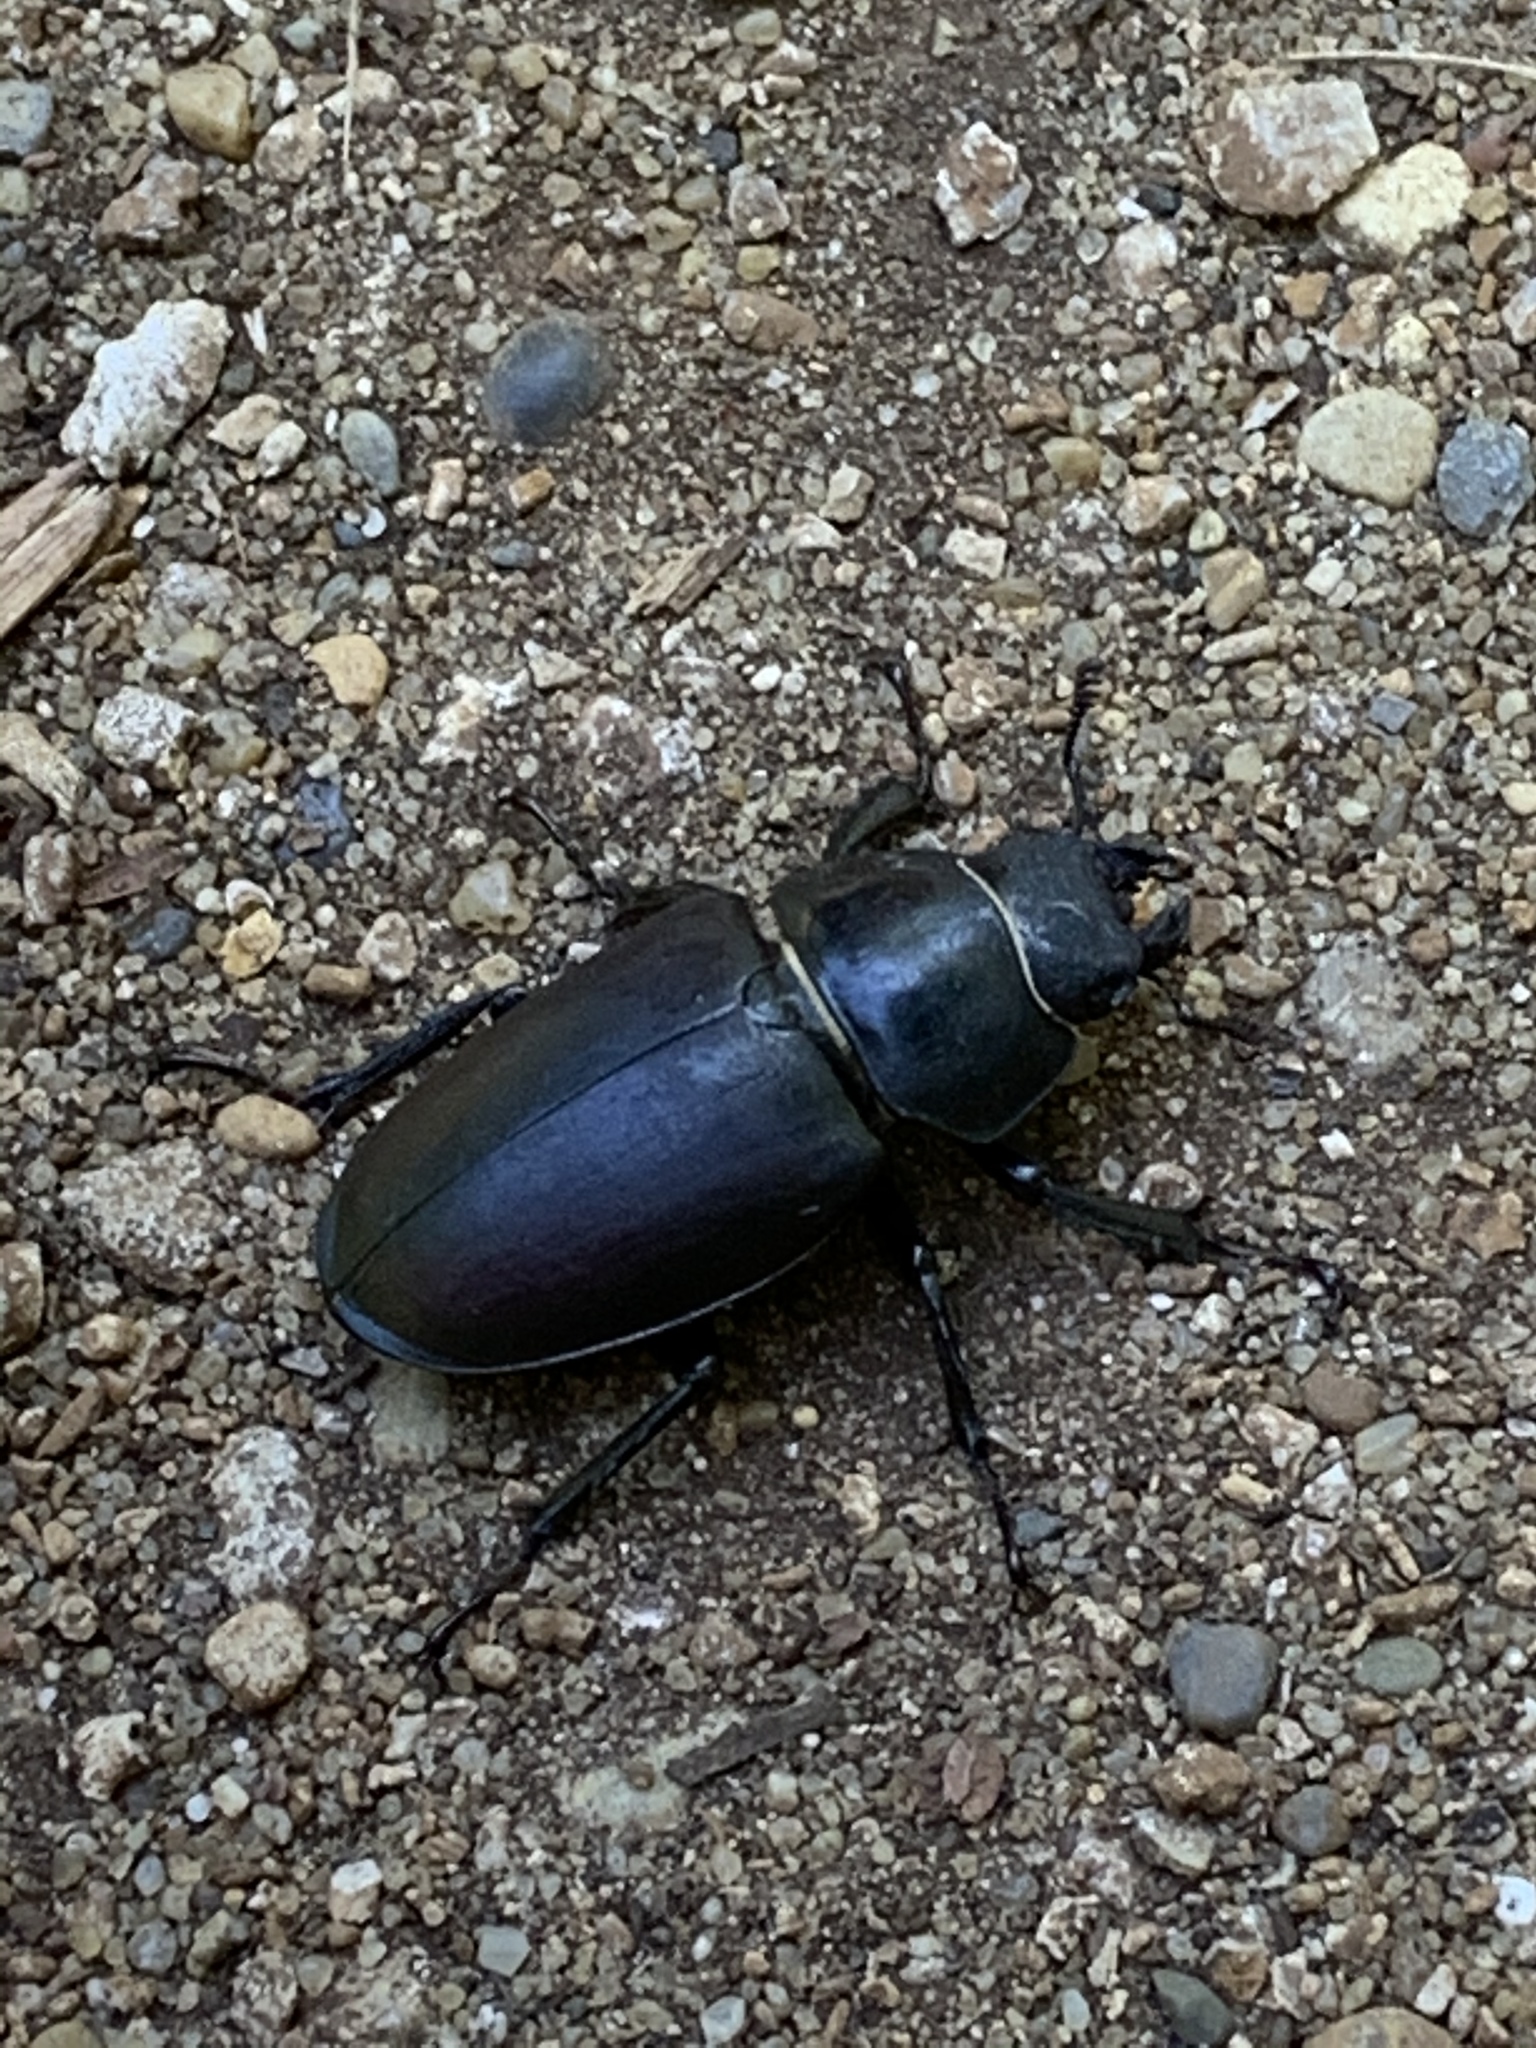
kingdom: Animalia
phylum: Arthropoda
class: Insecta
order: Coleoptera
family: Lucanidae
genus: Lucanus
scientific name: Lucanus cervus
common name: Stag beetle
